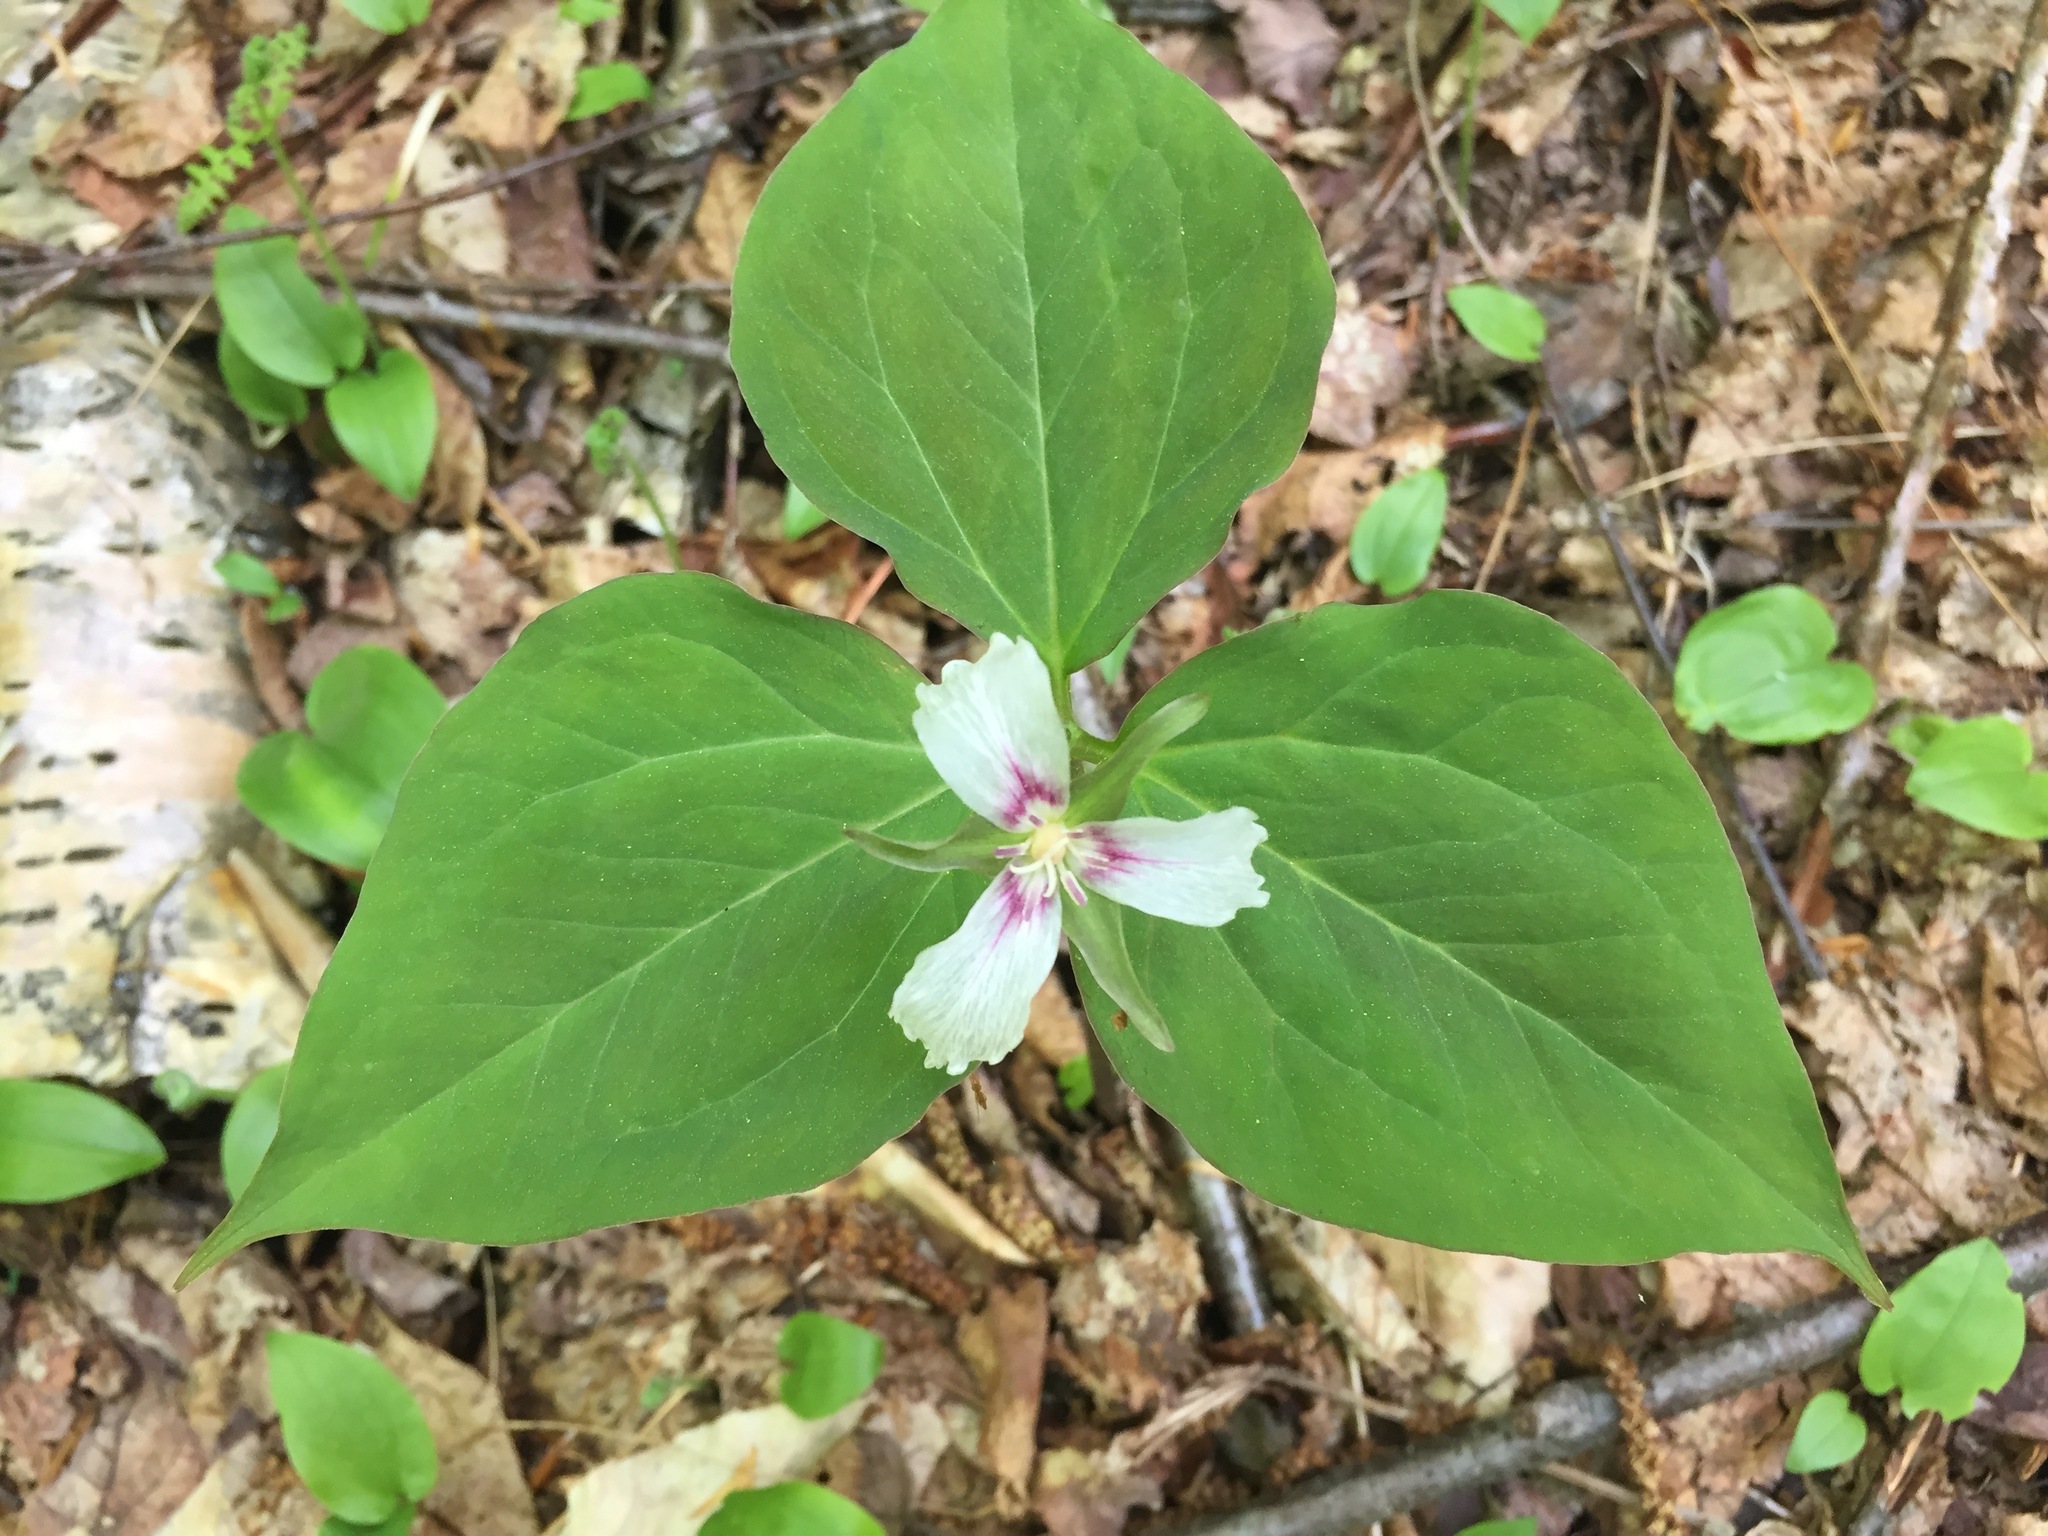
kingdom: Plantae
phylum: Tracheophyta
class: Liliopsida
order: Liliales
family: Melanthiaceae
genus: Trillium
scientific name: Trillium undulatum
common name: Paint trillium
